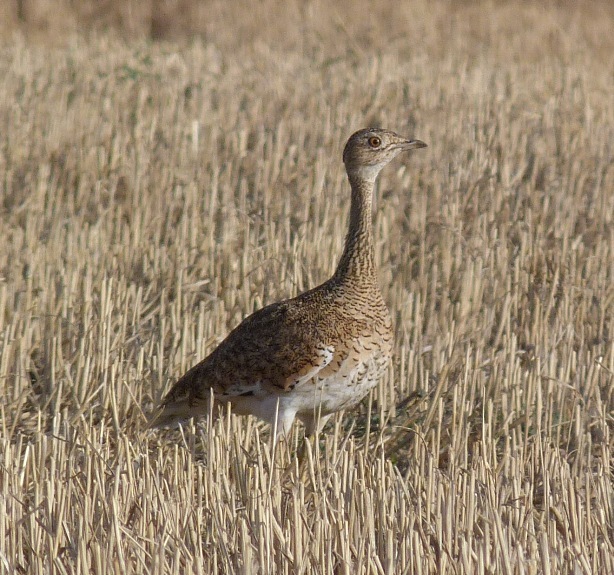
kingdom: Animalia
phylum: Chordata
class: Aves
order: Otidiformes
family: Otididae
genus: Tetrax
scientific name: Tetrax tetrax
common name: Little bustard
